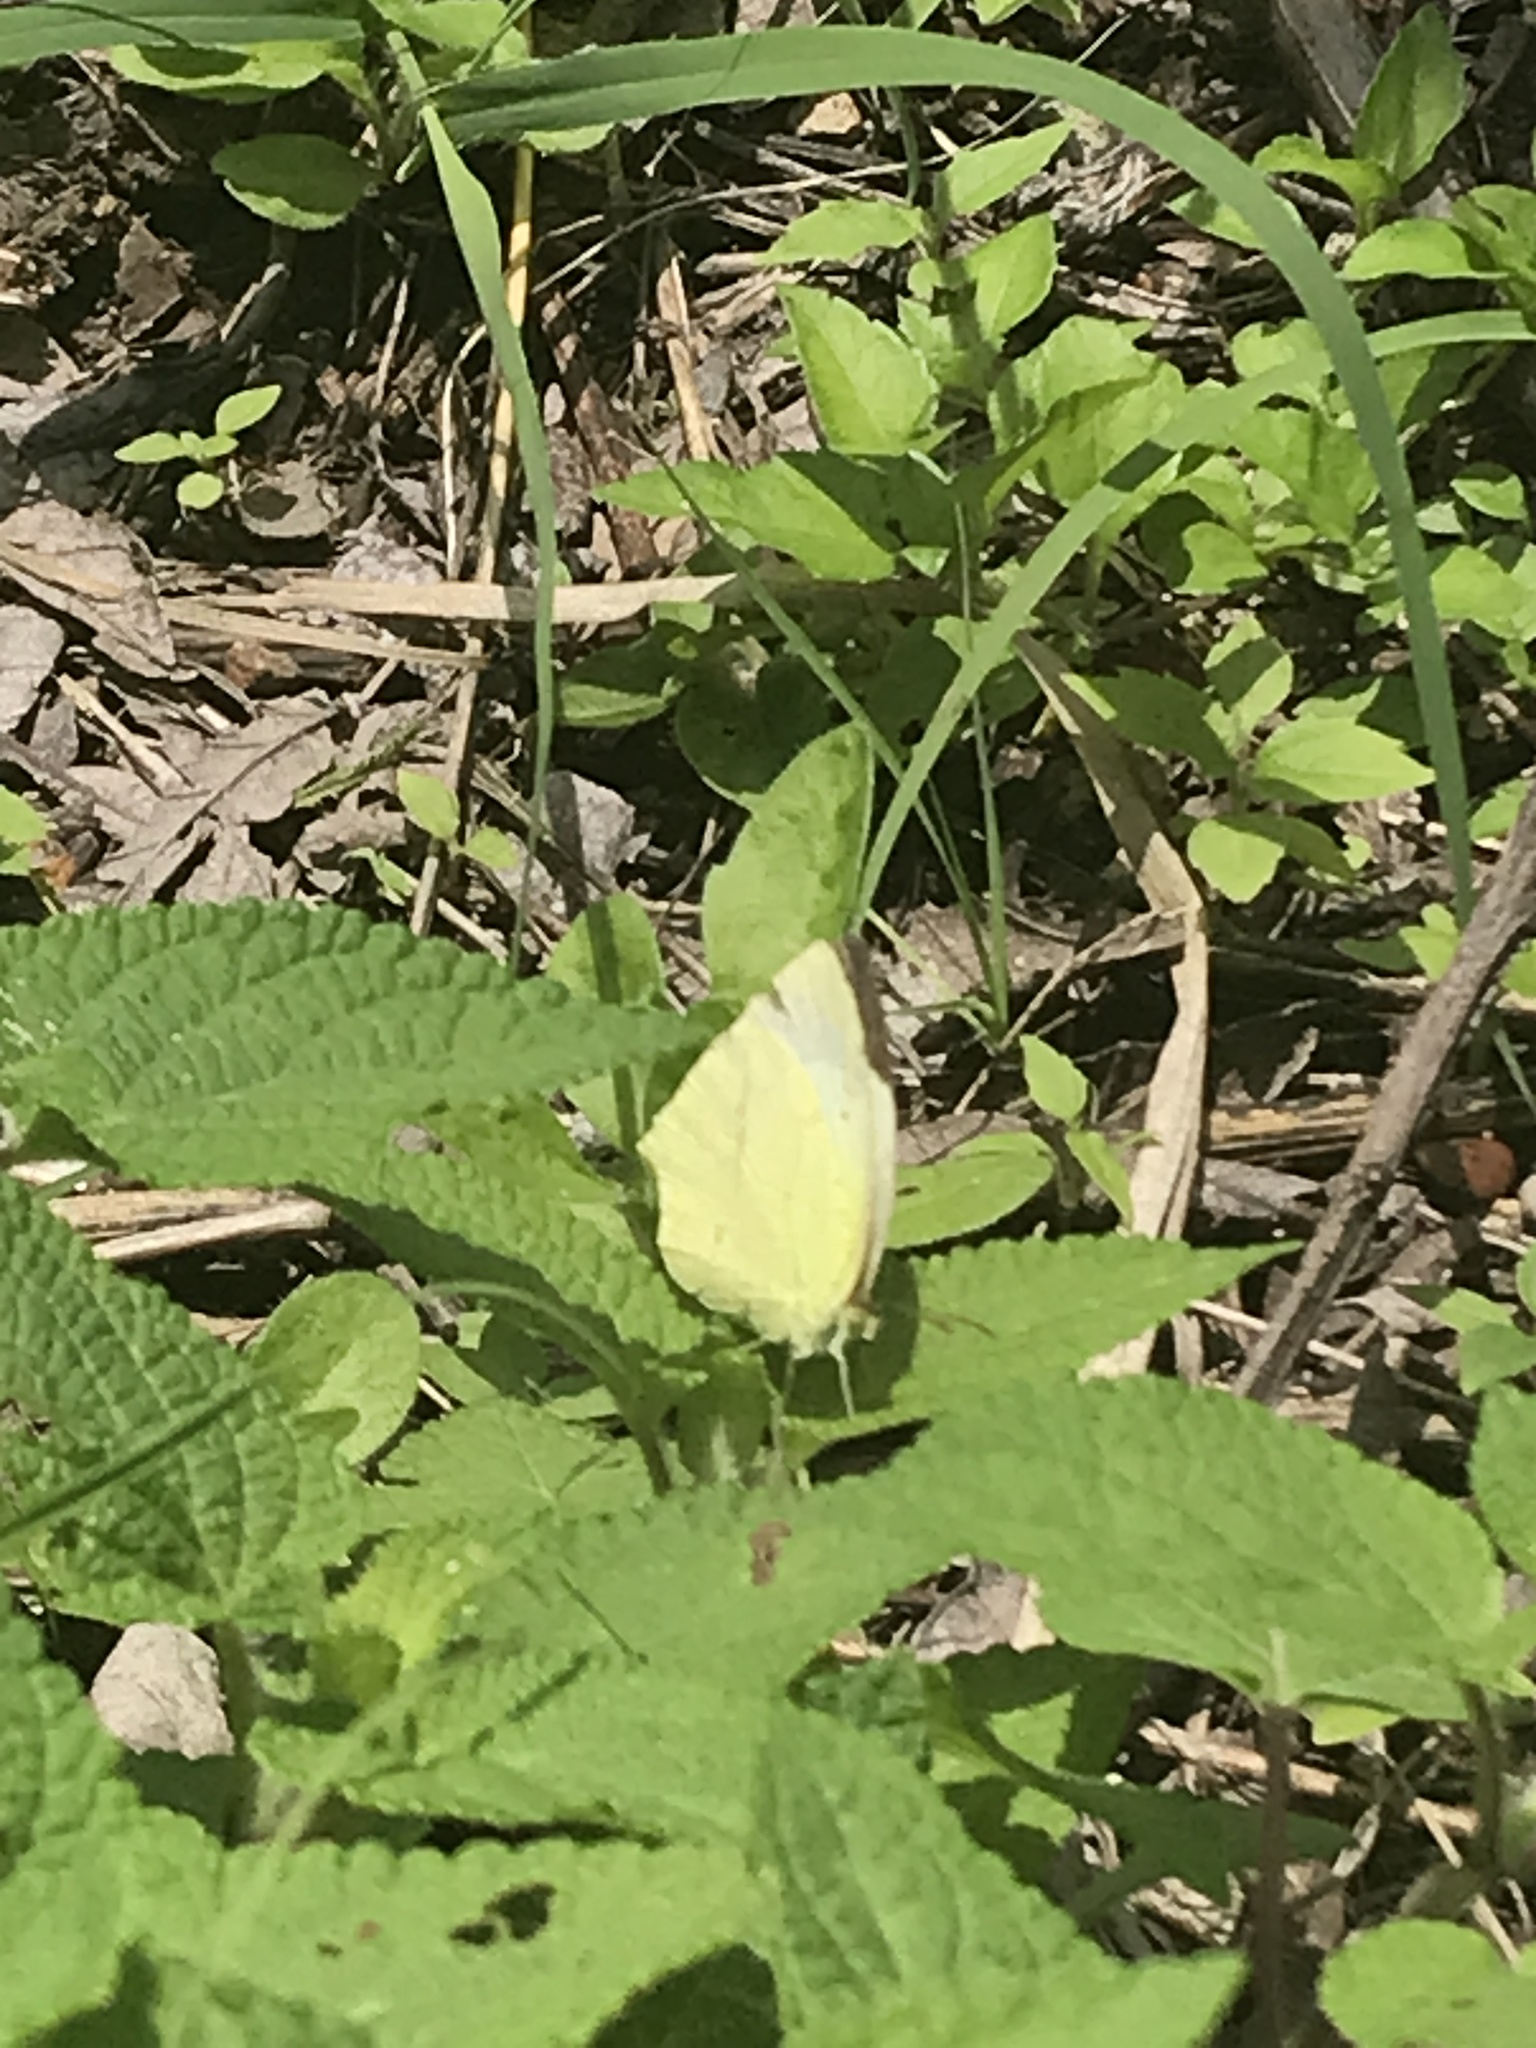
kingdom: Animalia
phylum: Arthropoda
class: Insecta
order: Lepidoptera
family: Pieridae
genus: Abaeis
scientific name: Abaeis mexicana
